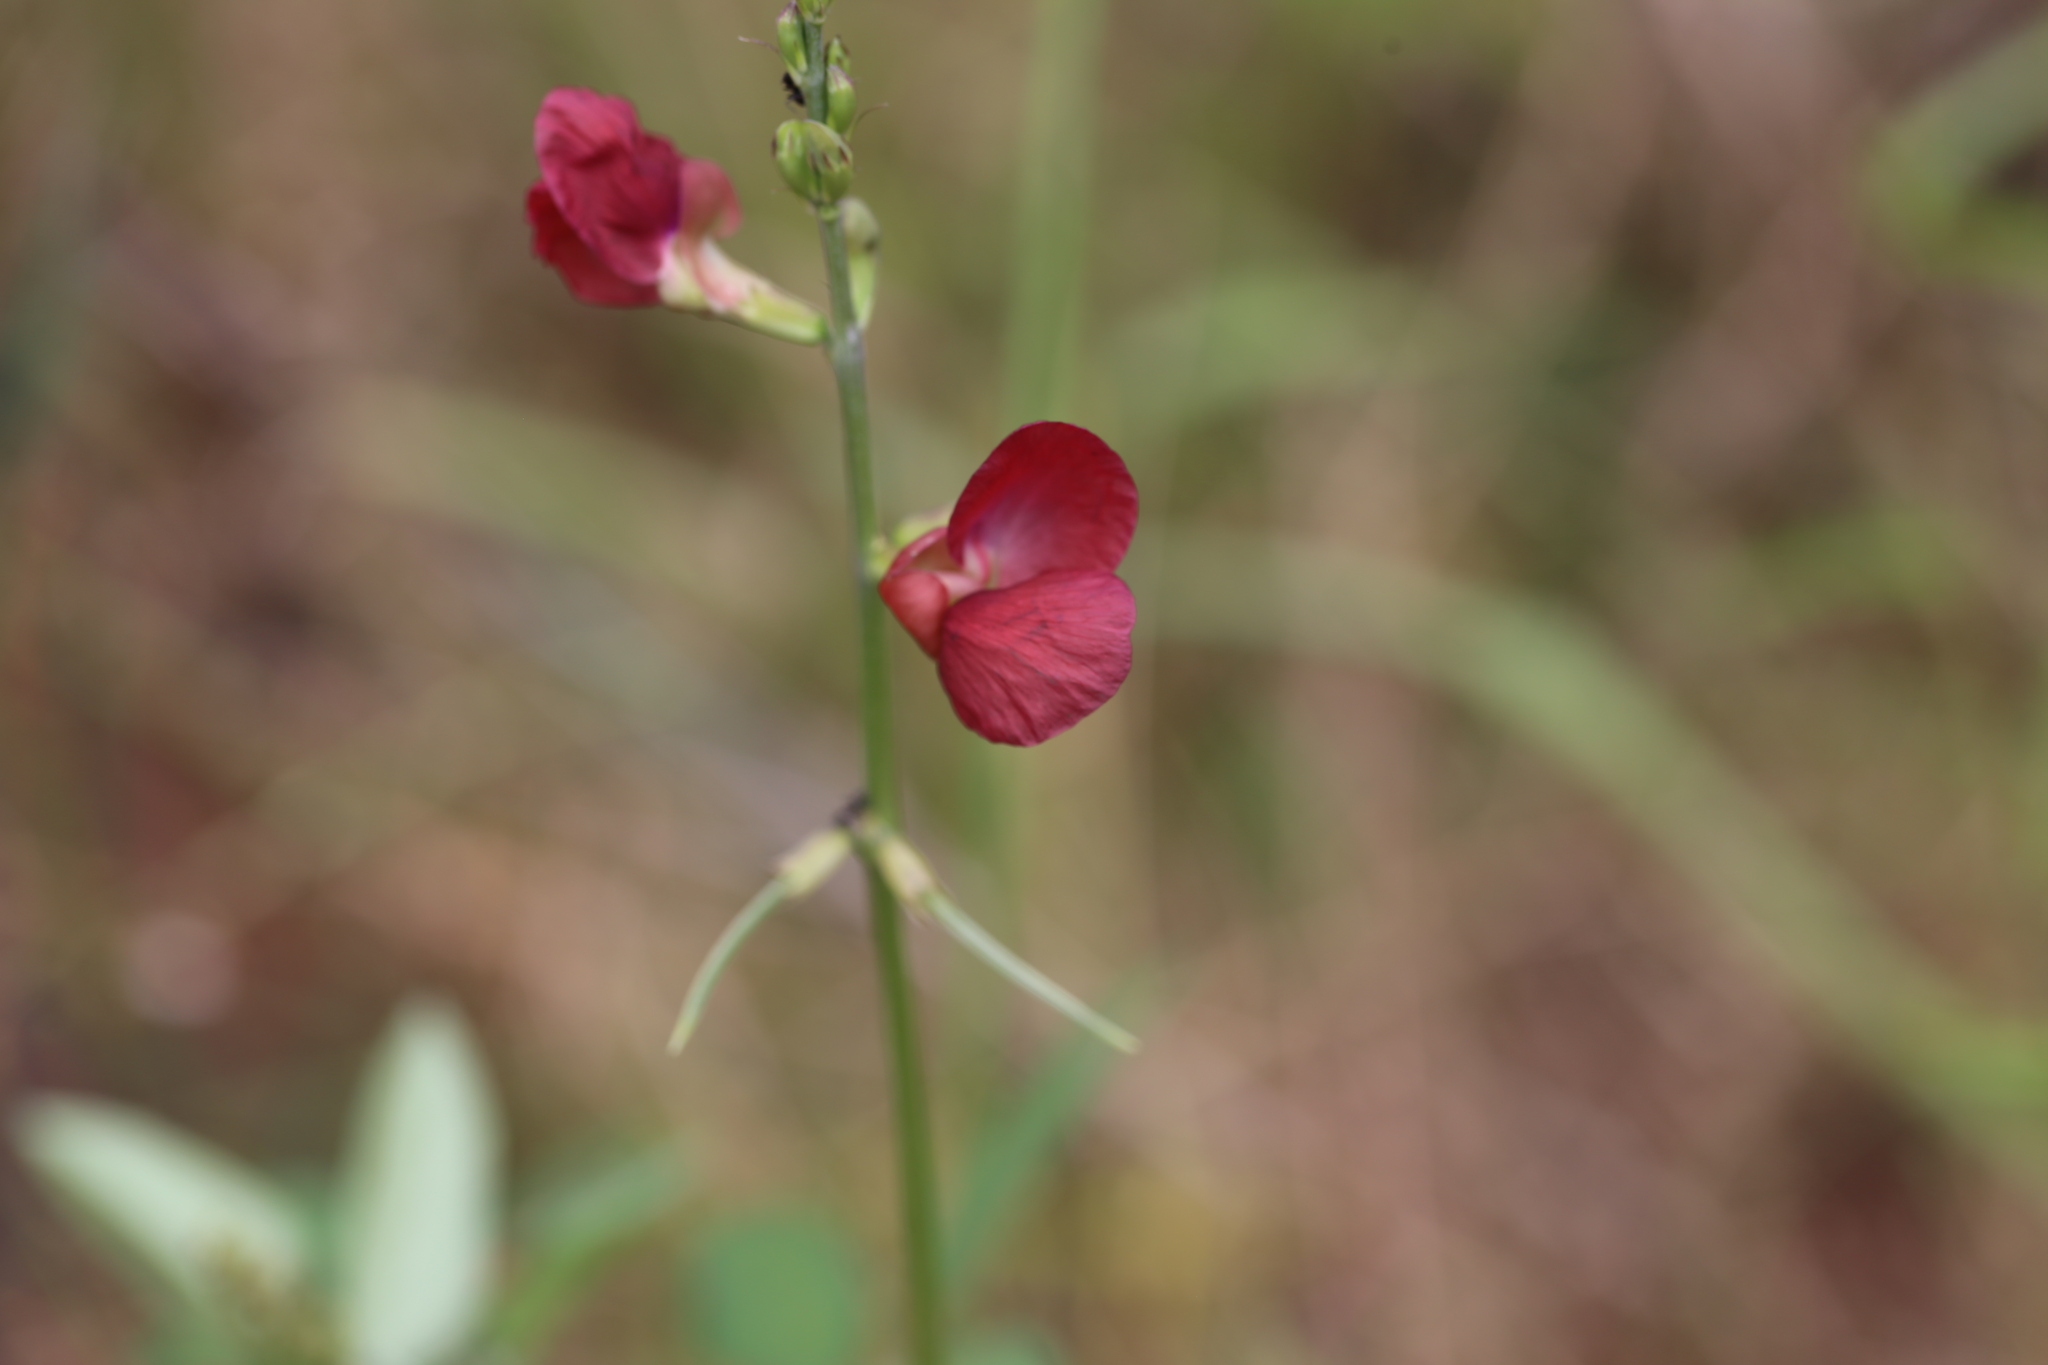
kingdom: Plantae
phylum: Tracheophyta
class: Magnoliopsida
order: Fabales
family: Fabaceae
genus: Macroptilium
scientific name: Macroptilium lathyroides
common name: Wild bushbean
